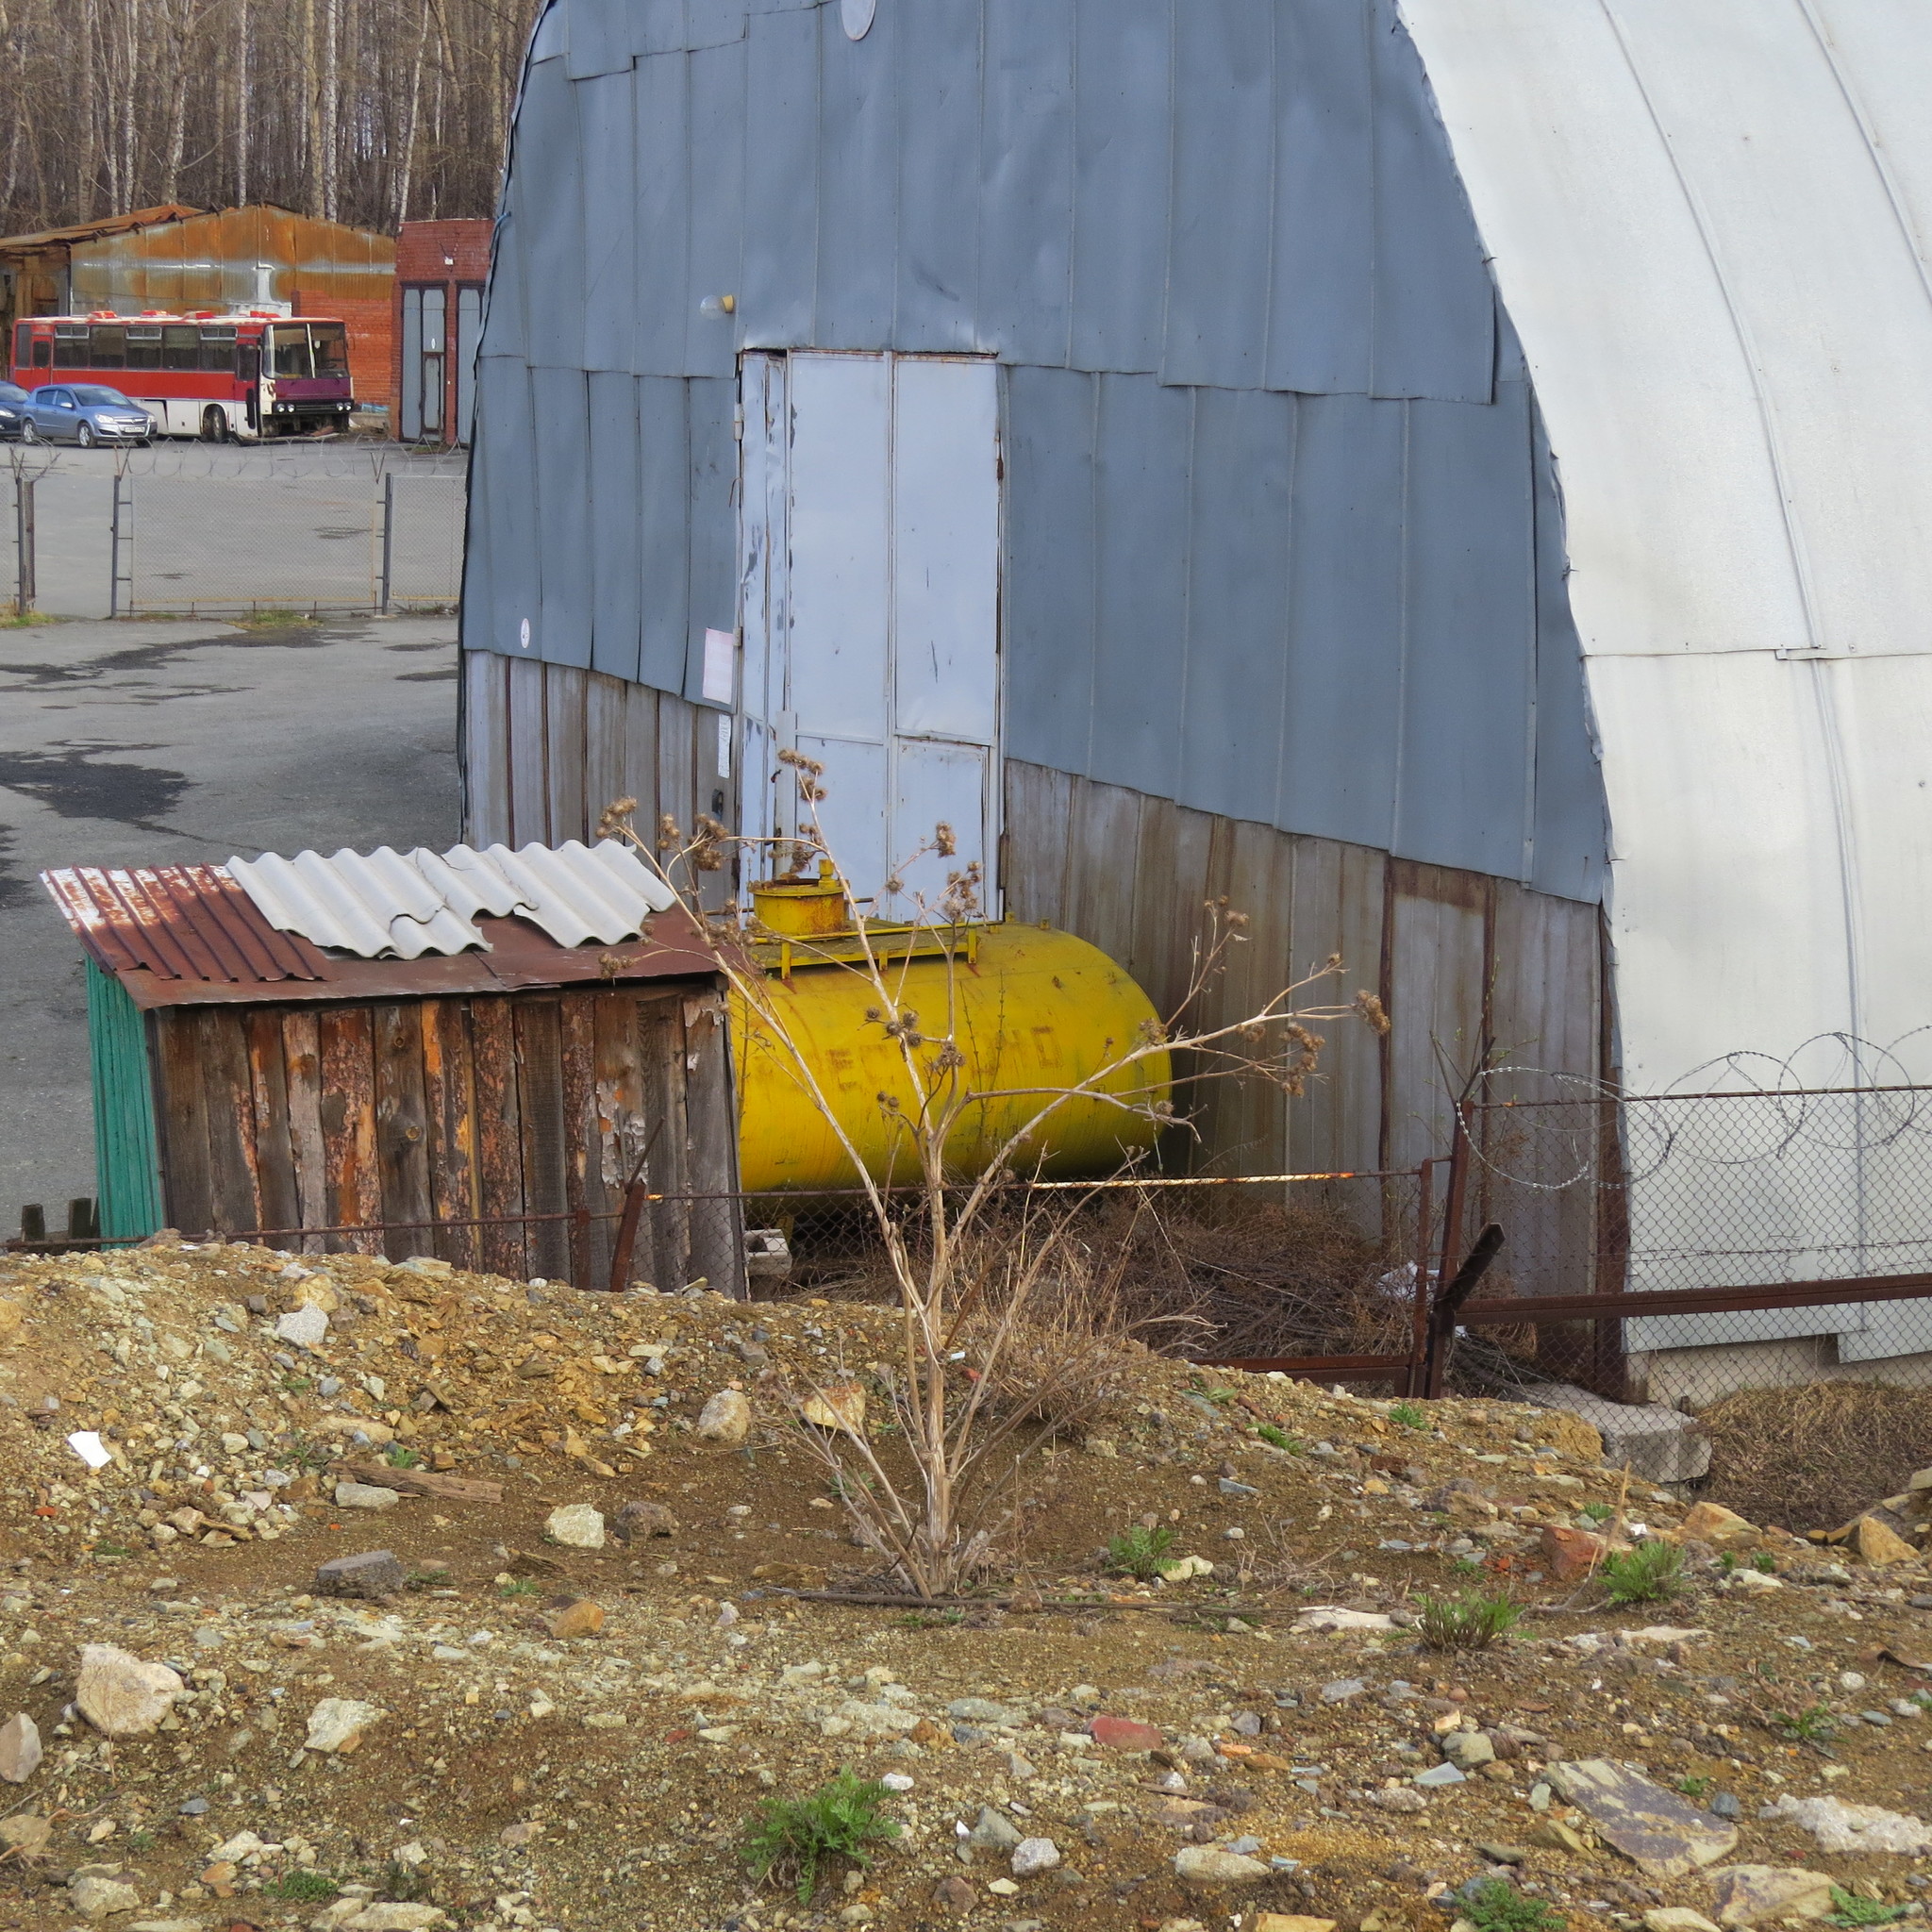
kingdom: Plantae
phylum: Tracheophyta
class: Magnoliopsida
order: Asterales
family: Asteraceae
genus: Arctium
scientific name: Arctium tomentosum
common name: Woolly burdock
